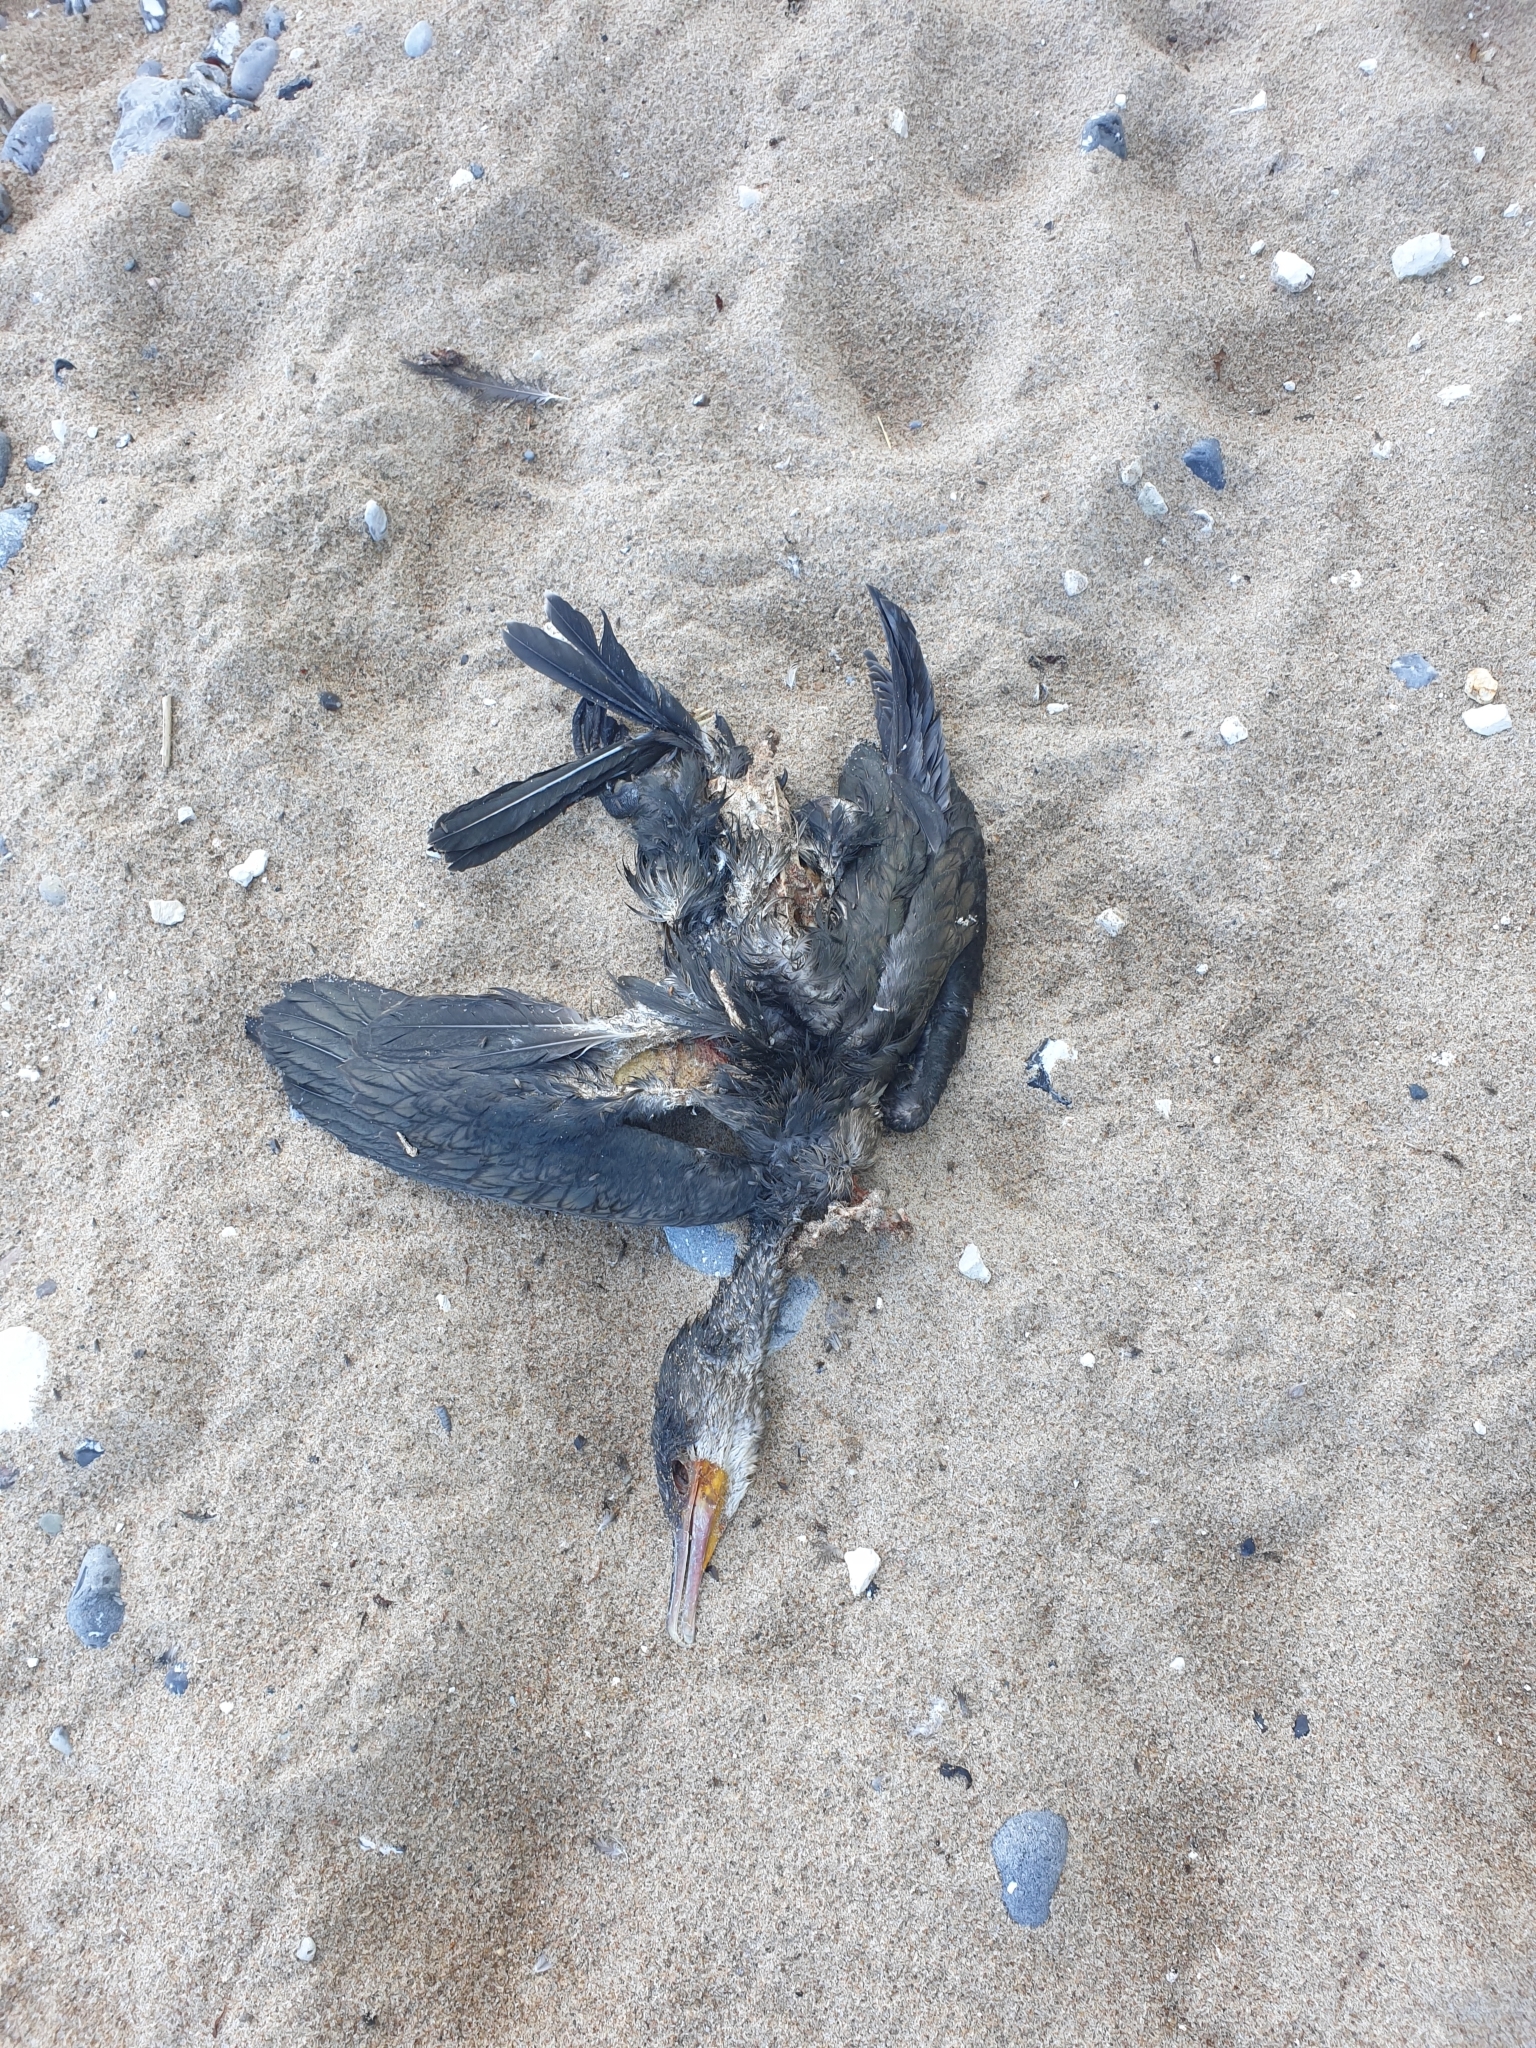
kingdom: Animalia
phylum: Chordata
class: Aves
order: Suliformes
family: Phalacrocoracidae
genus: Phalacrocorax
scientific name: Phalacrocorax carbo
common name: Great cormorant
